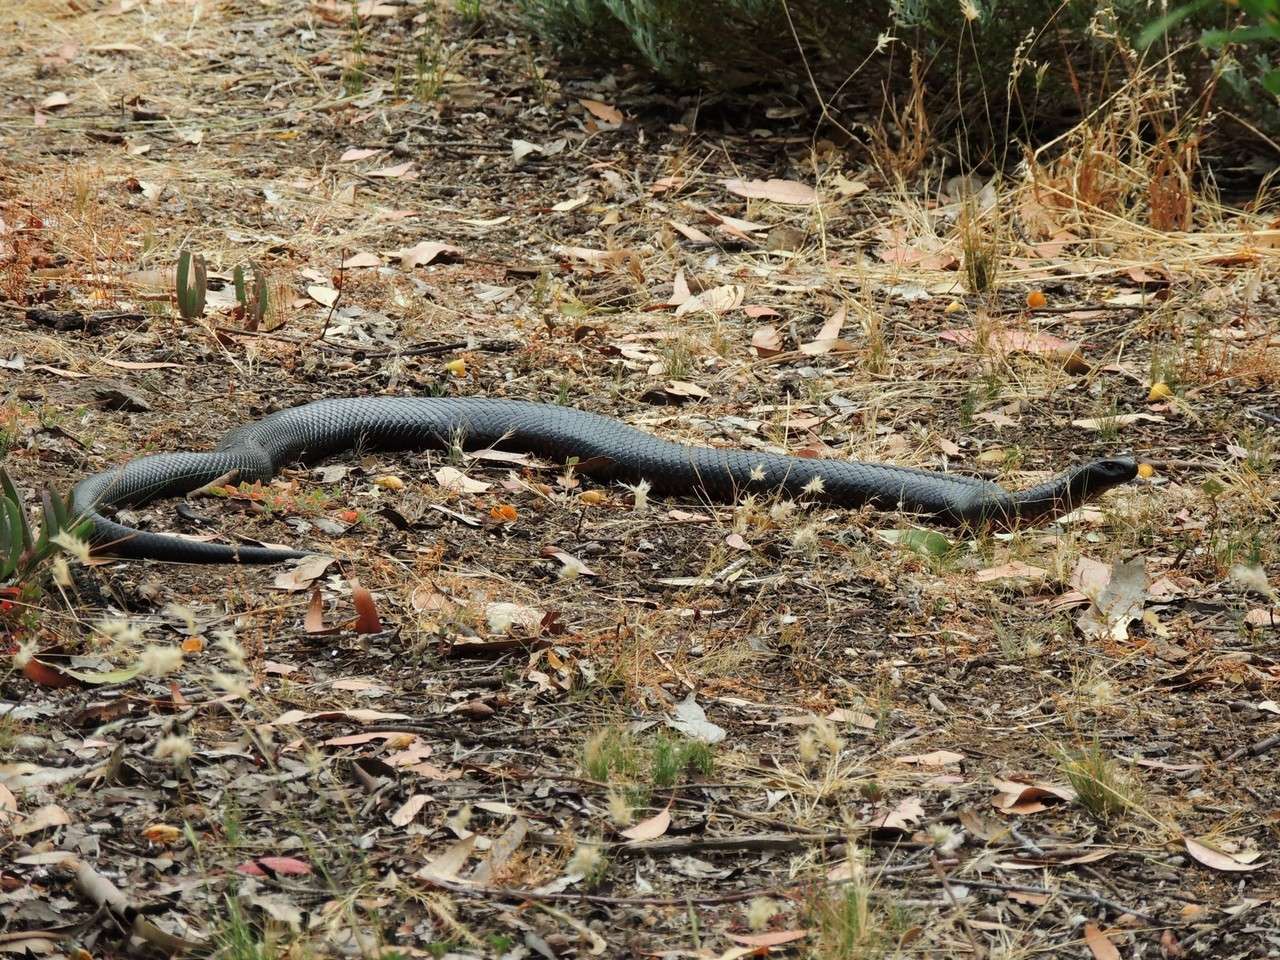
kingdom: Animalia
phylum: Chordata
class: Squamata
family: Elapidae
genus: Pseudechis
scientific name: Pseudechis porphyriacus
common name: Australian black snake
